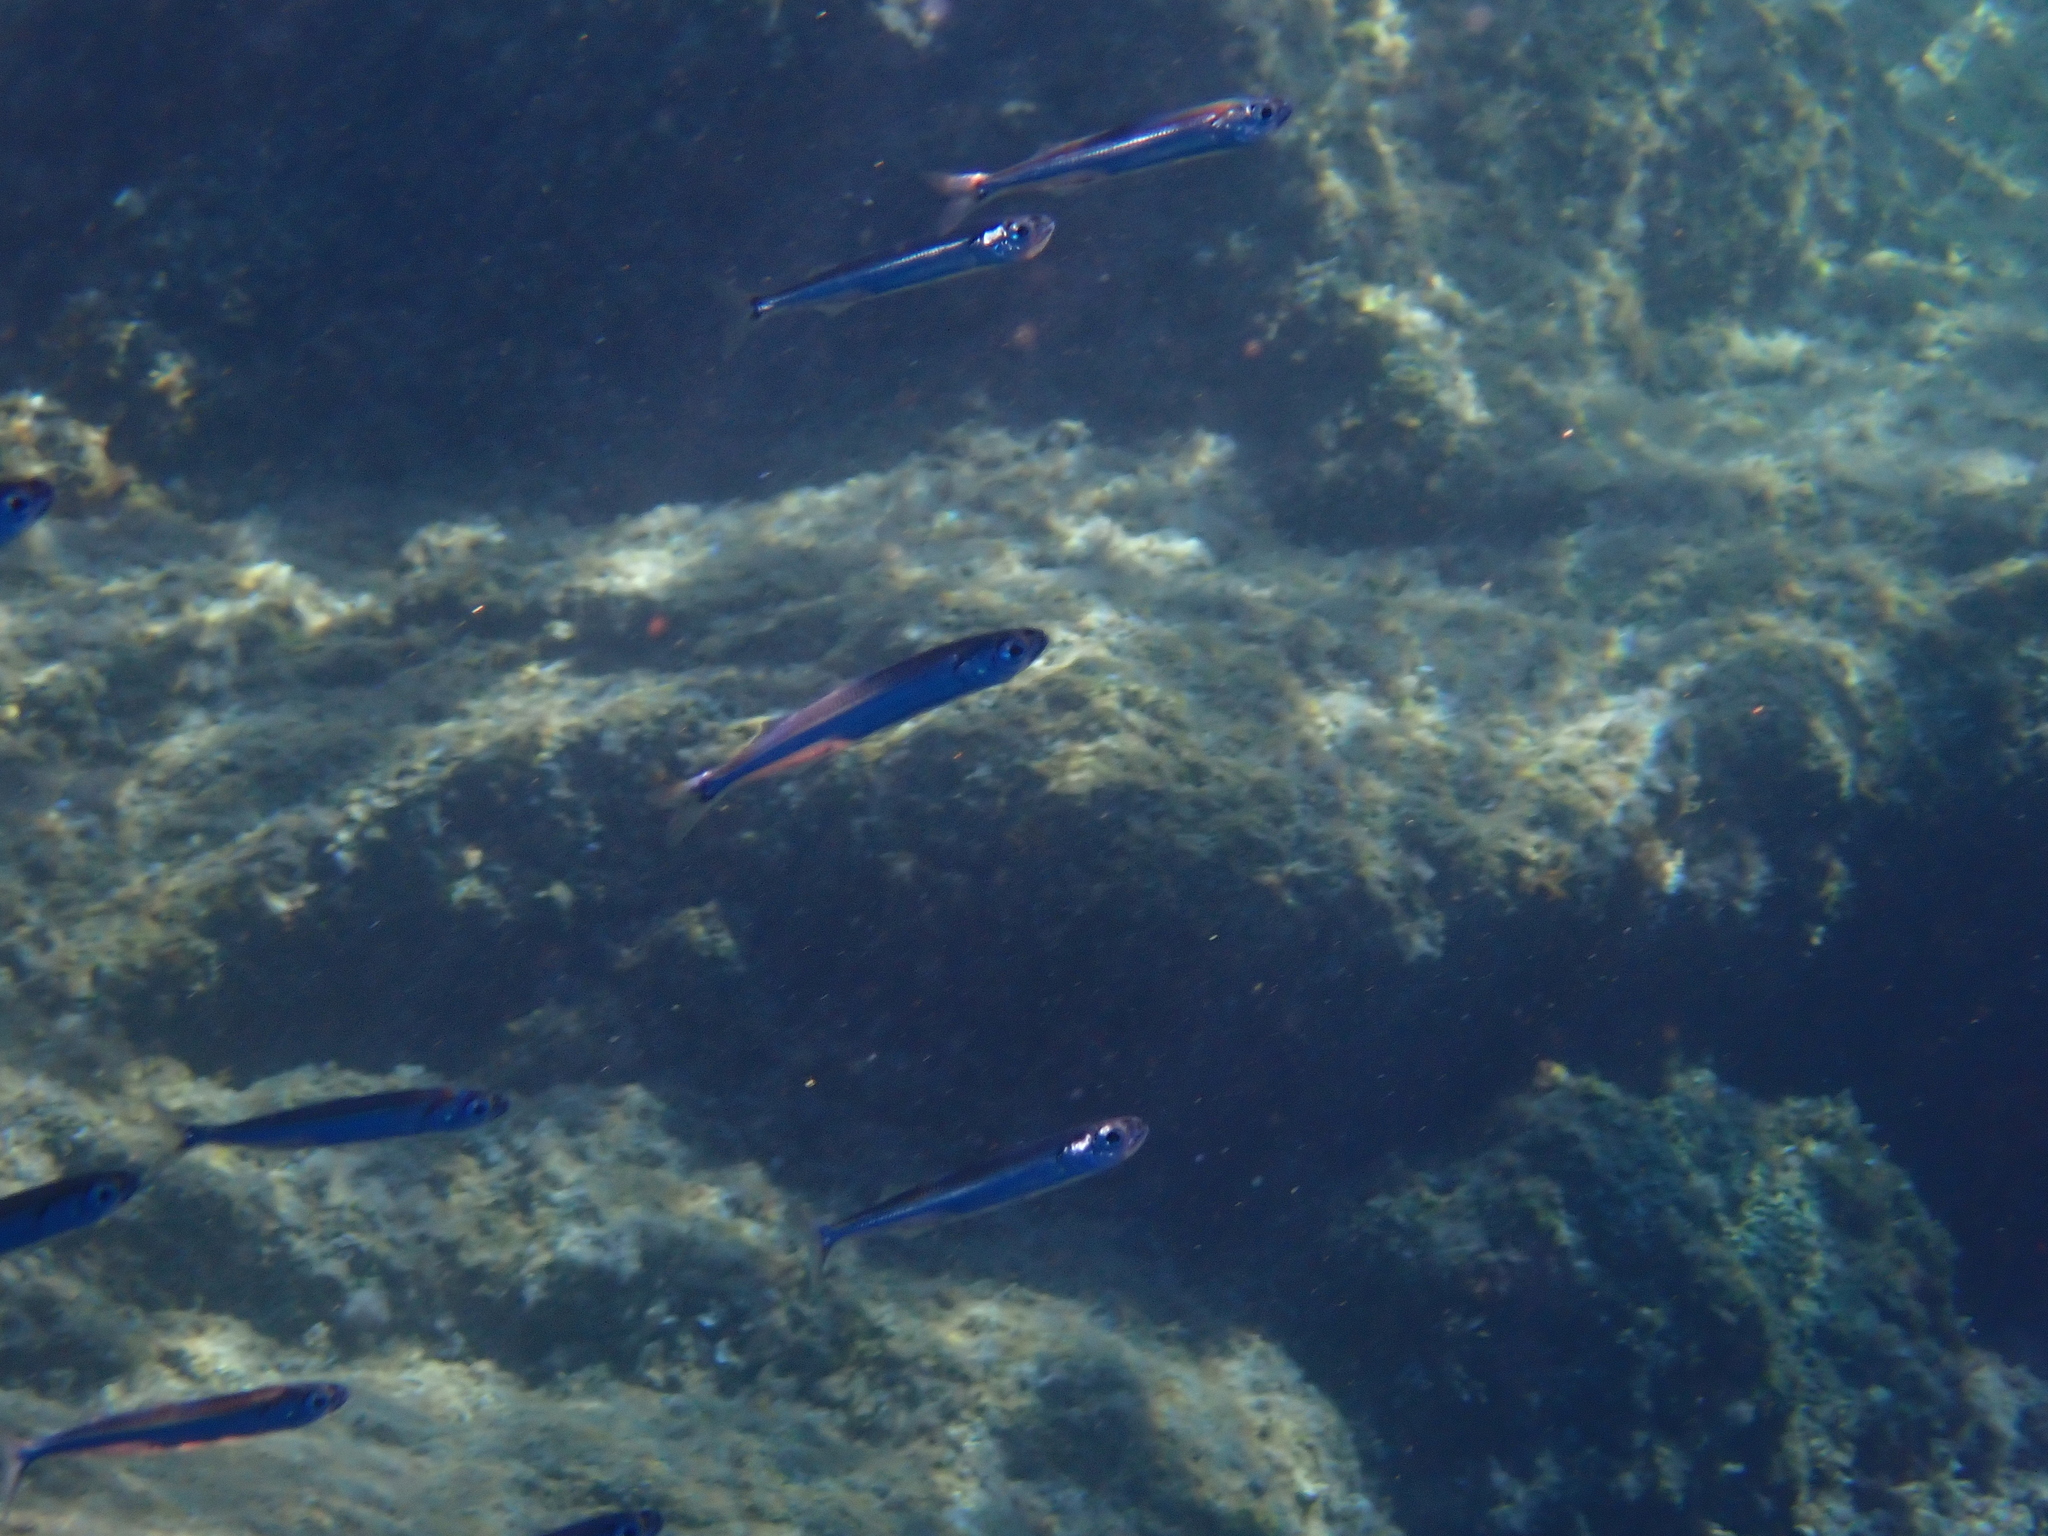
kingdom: Animalia
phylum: Chordata
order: Atheriniformes
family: Atherinidae
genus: Atherina
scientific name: Atherina hepsetus
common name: Mediterranean sand smelt
